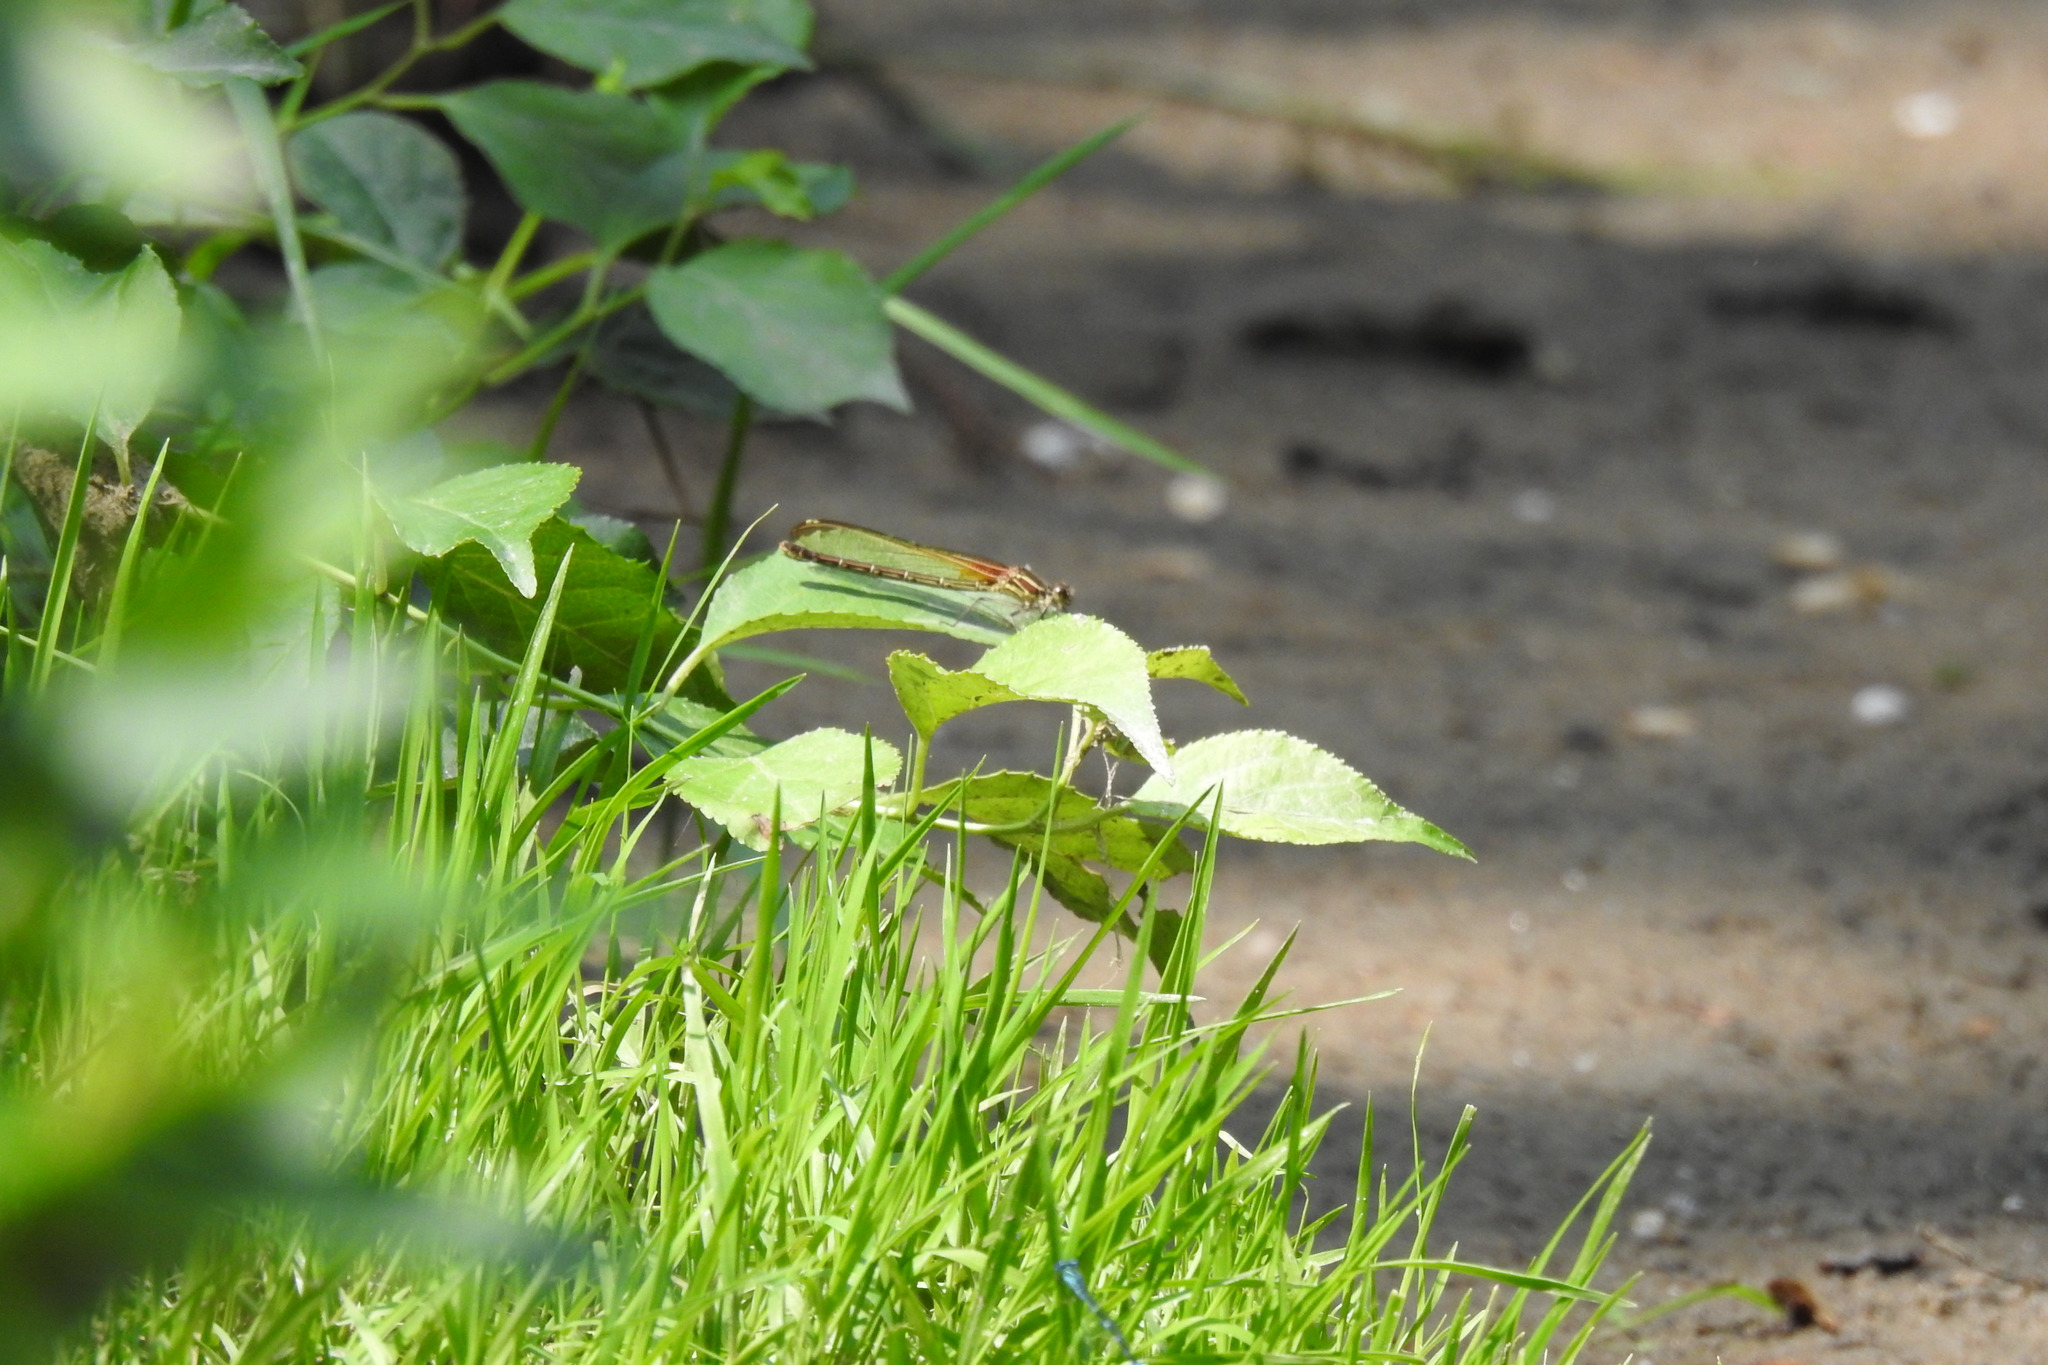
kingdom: Animalia
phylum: Arthropoda
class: Insecta
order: Odonata
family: Calopterygidae
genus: Hetaerina
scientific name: Hetaerina americana
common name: American rubyspot
